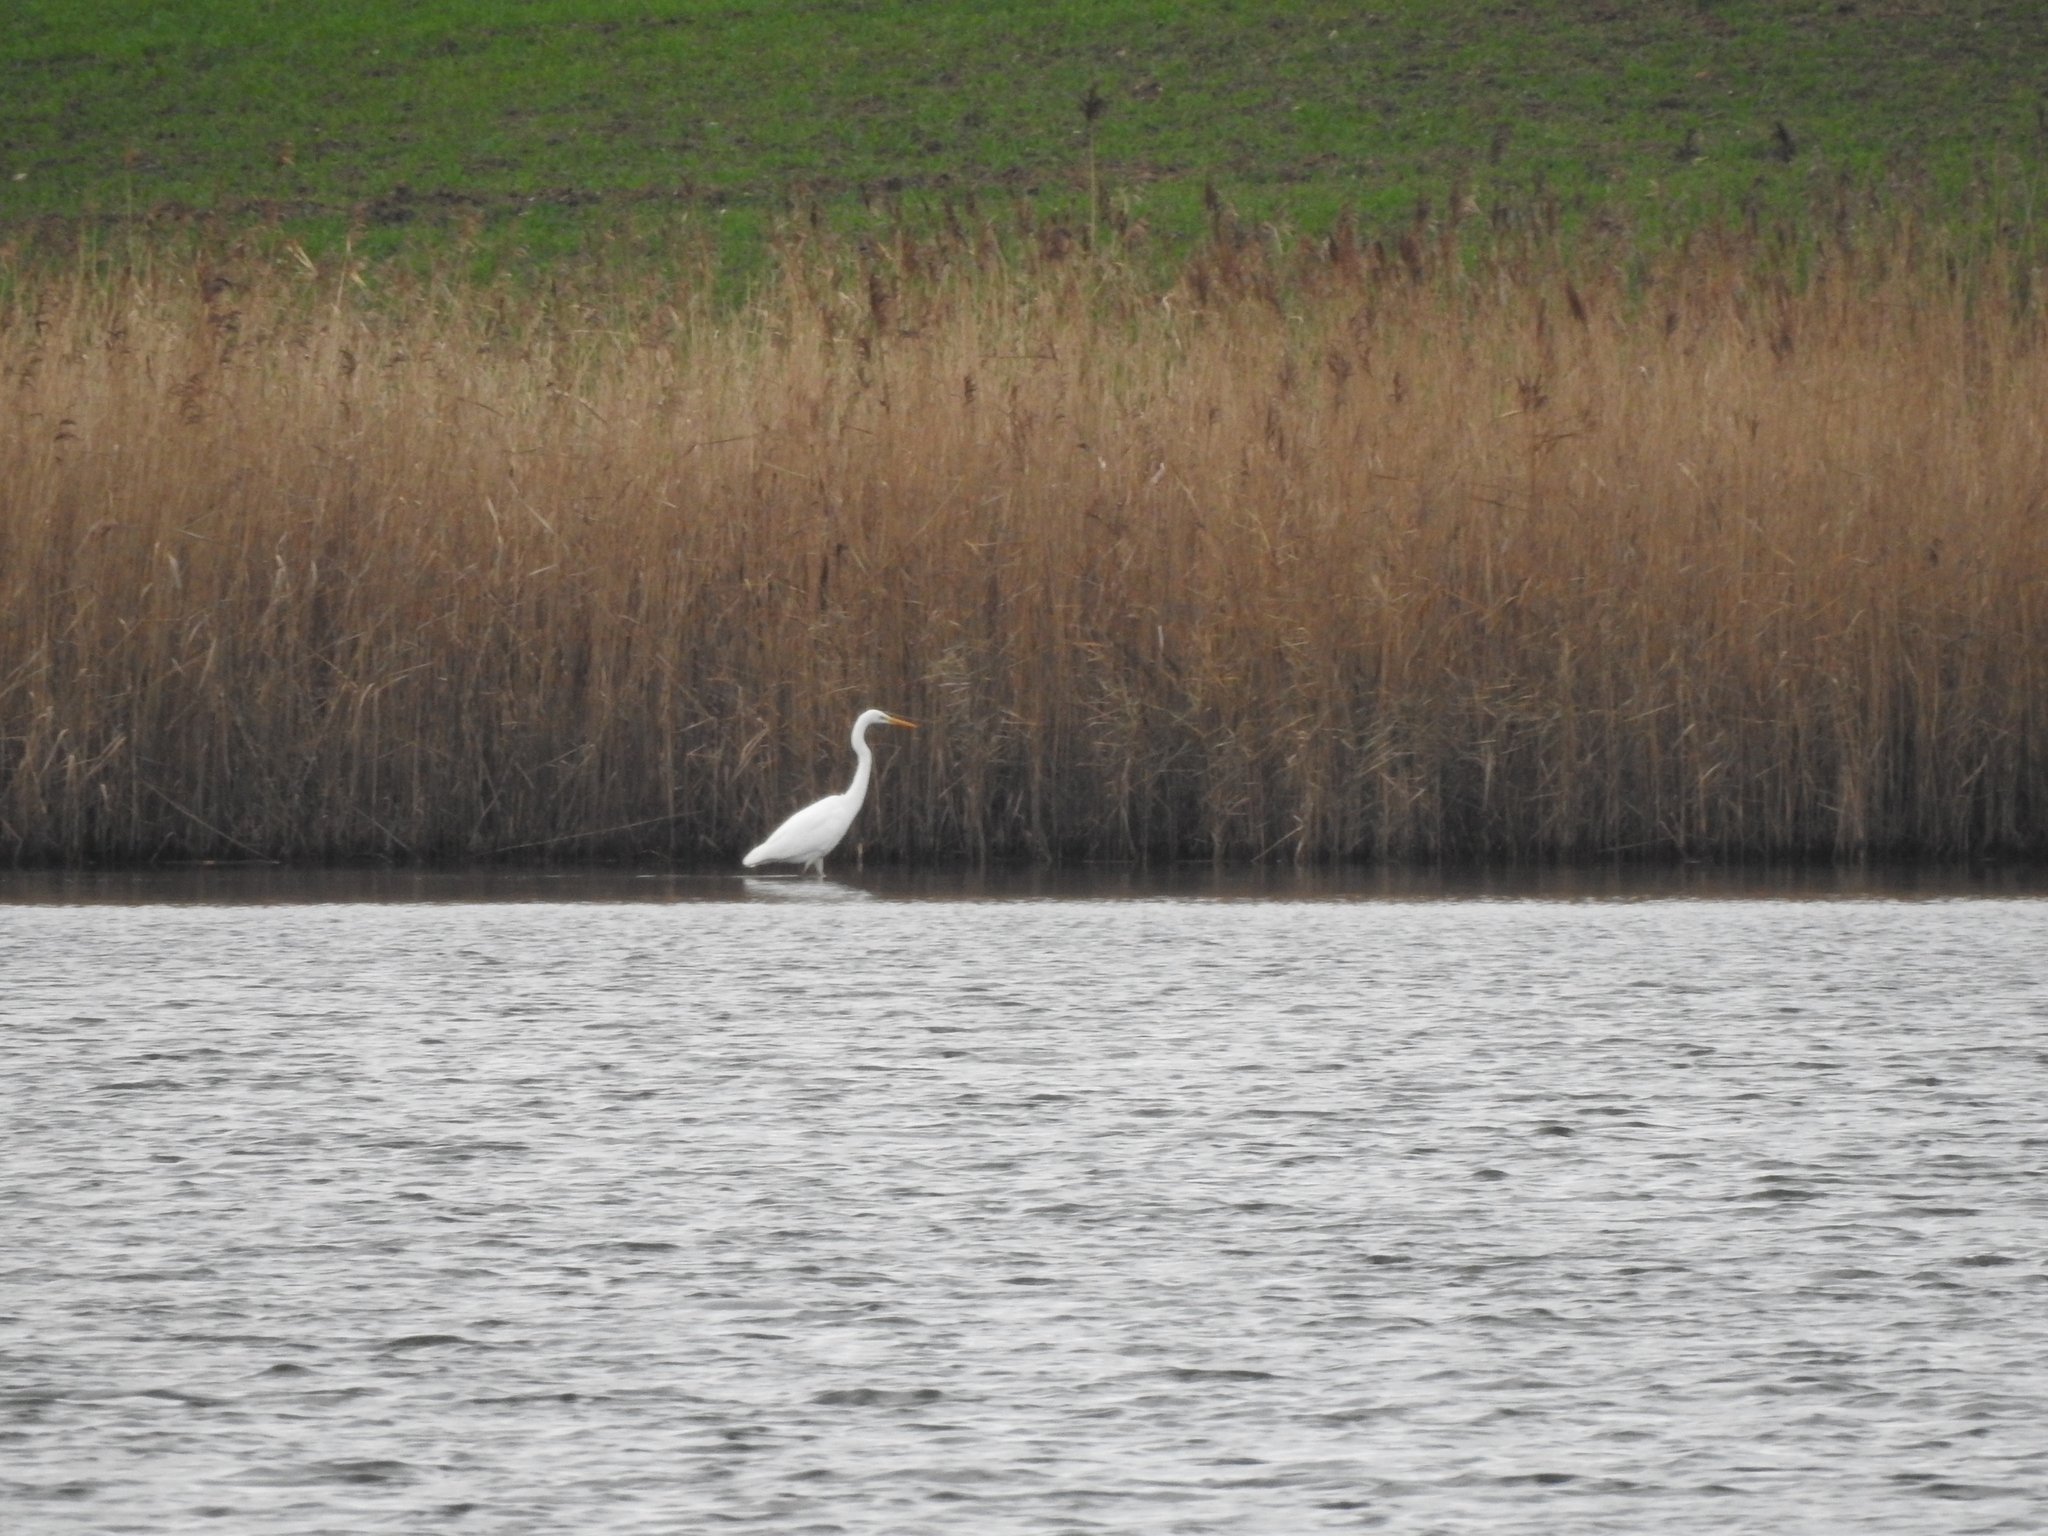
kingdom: Animalia
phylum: Chordata
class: Aves
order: Pelecaniformes
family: Ardeidae
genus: Ardea
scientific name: Ardea alba
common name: Great egret
